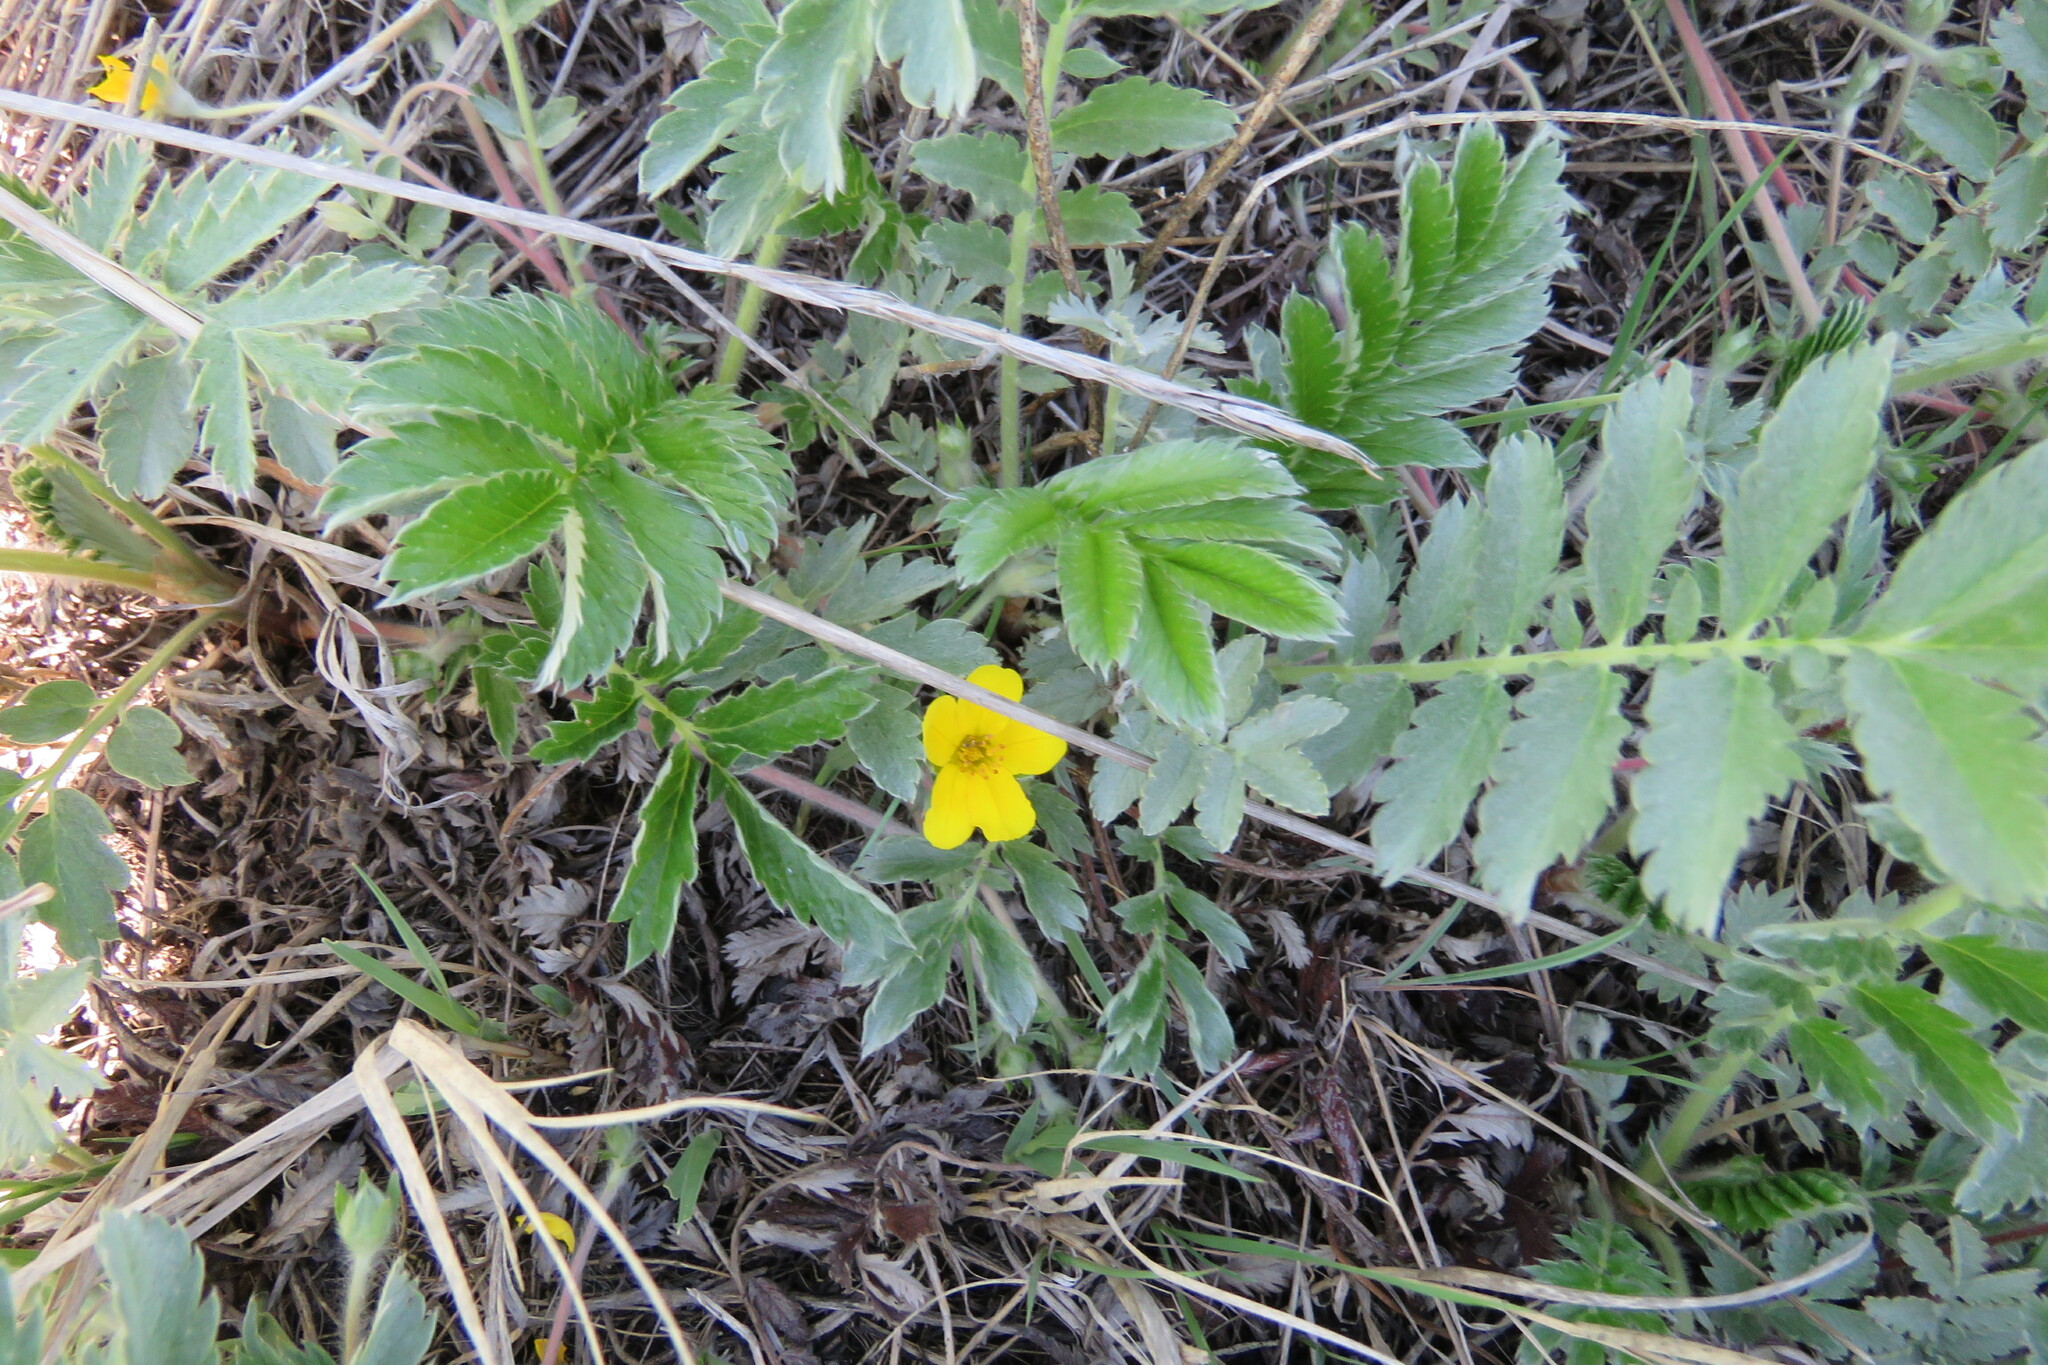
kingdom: Plantae
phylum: Tracheophyta
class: Magnoliopsida
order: Rosales
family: Rosaceae
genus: Argentina
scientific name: Argentina anserina
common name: Common silverweed
